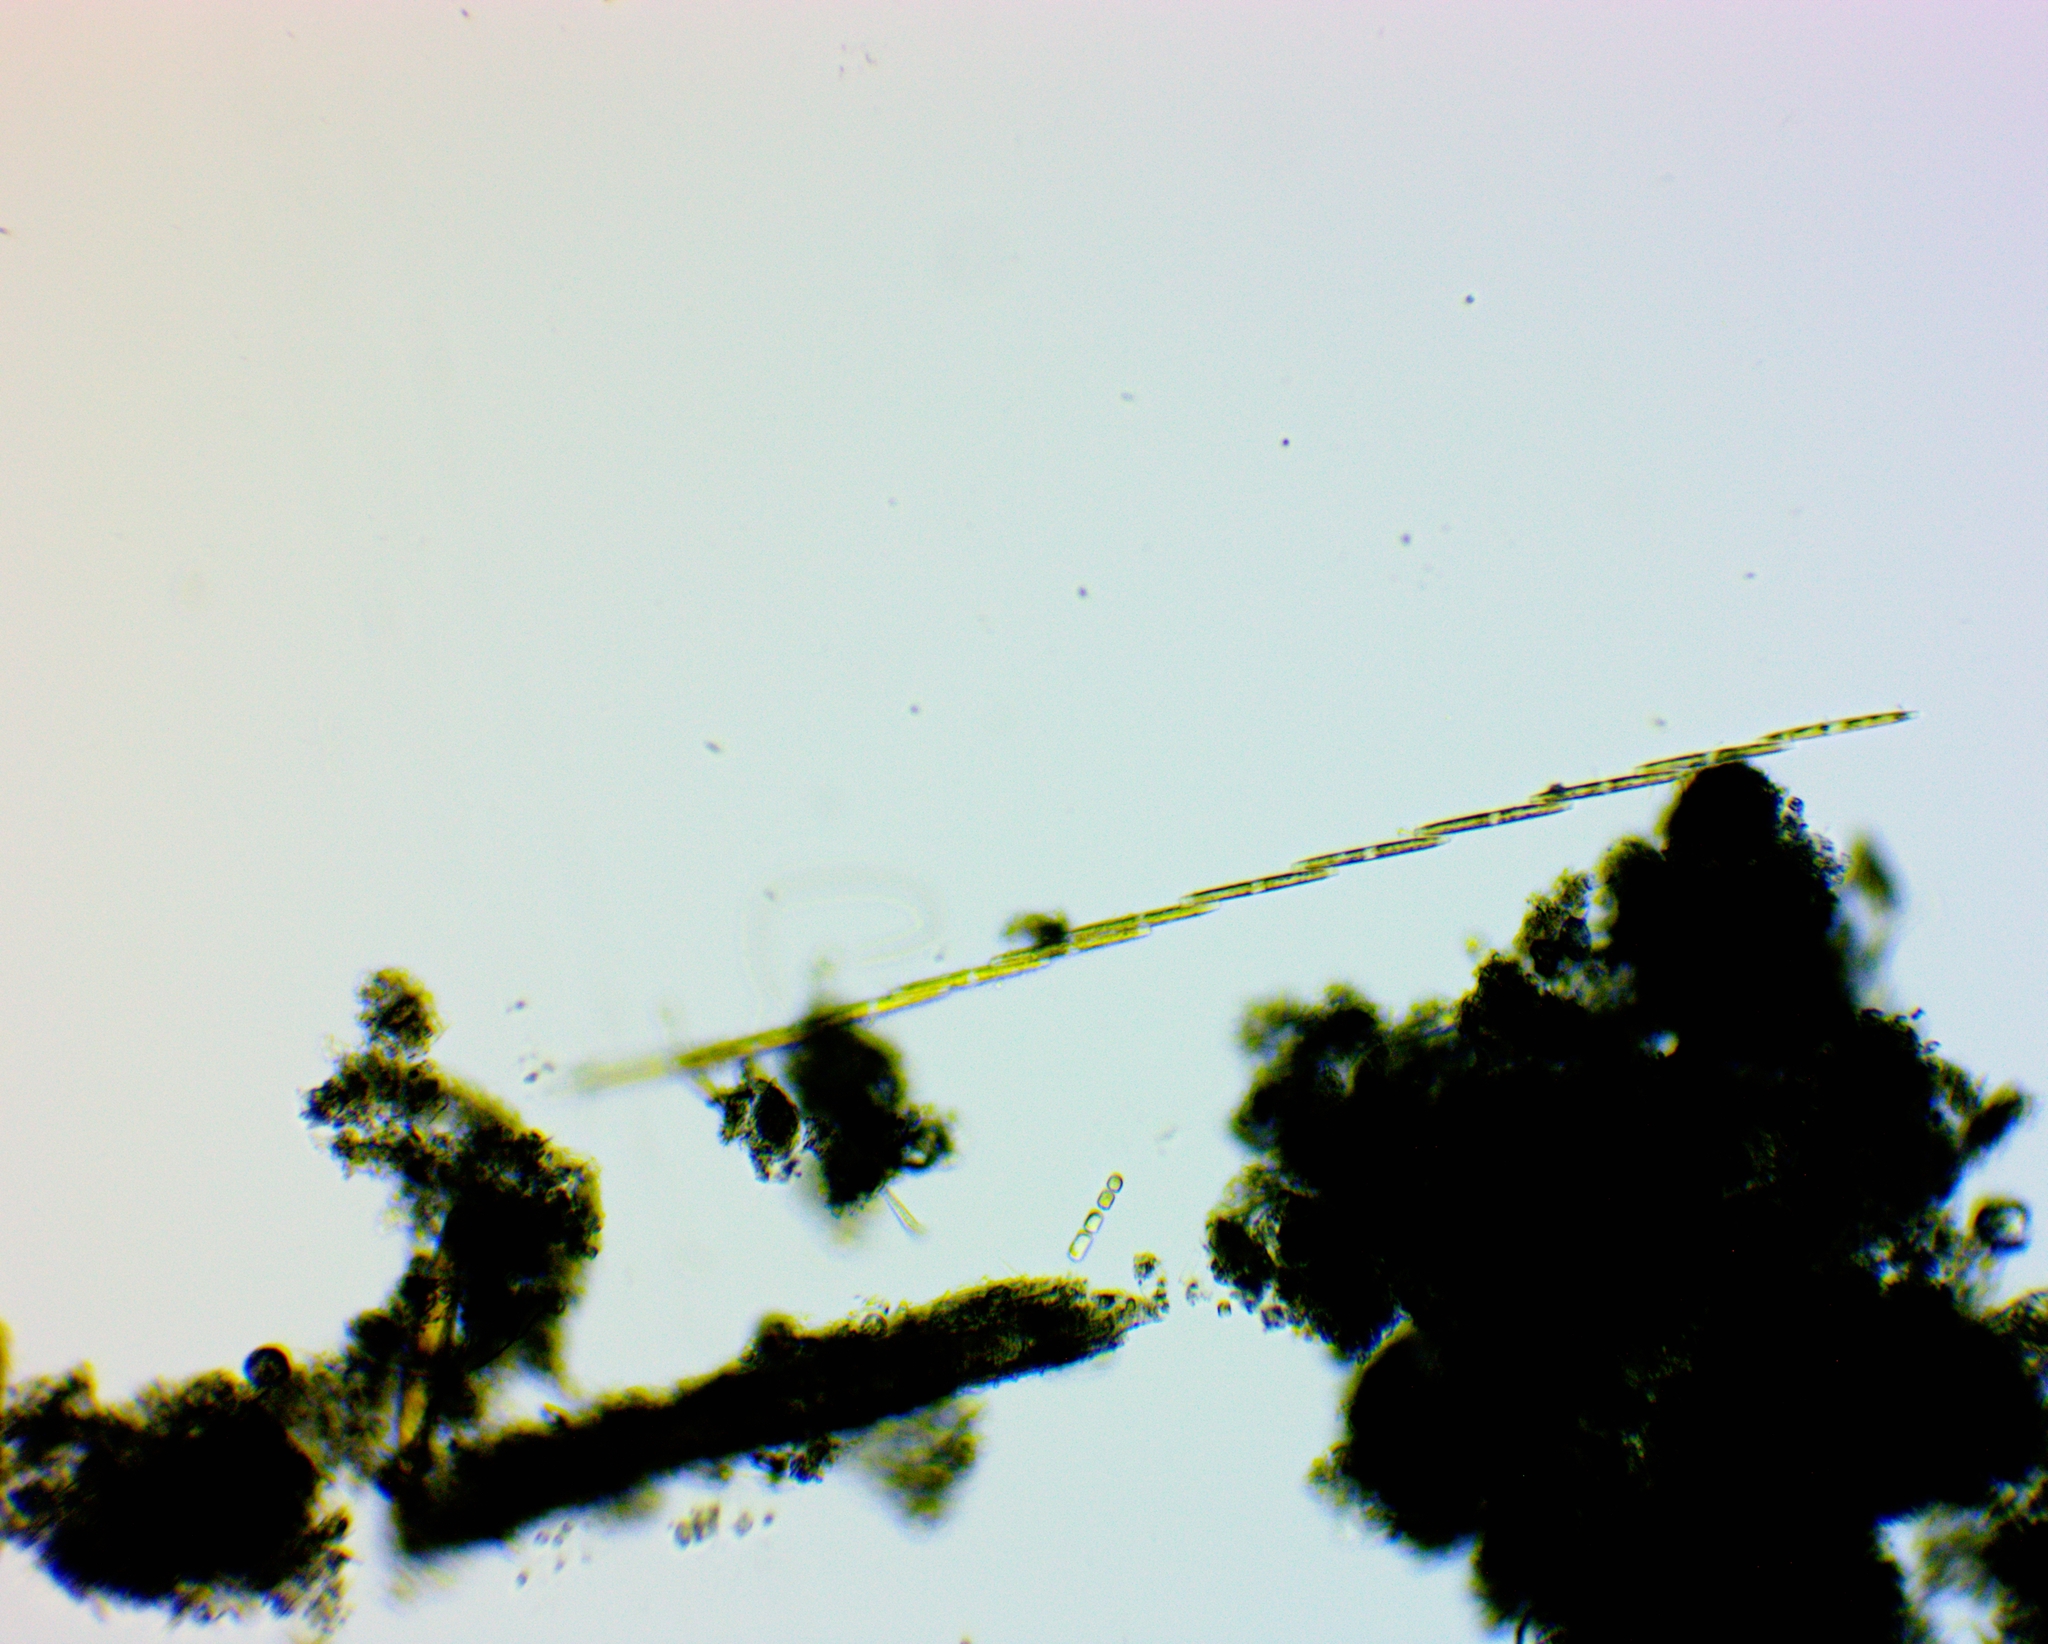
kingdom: Chromista
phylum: Ochrophyta
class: Bacillariophyceae
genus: Vibrio
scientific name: Vibrio paxillifer
